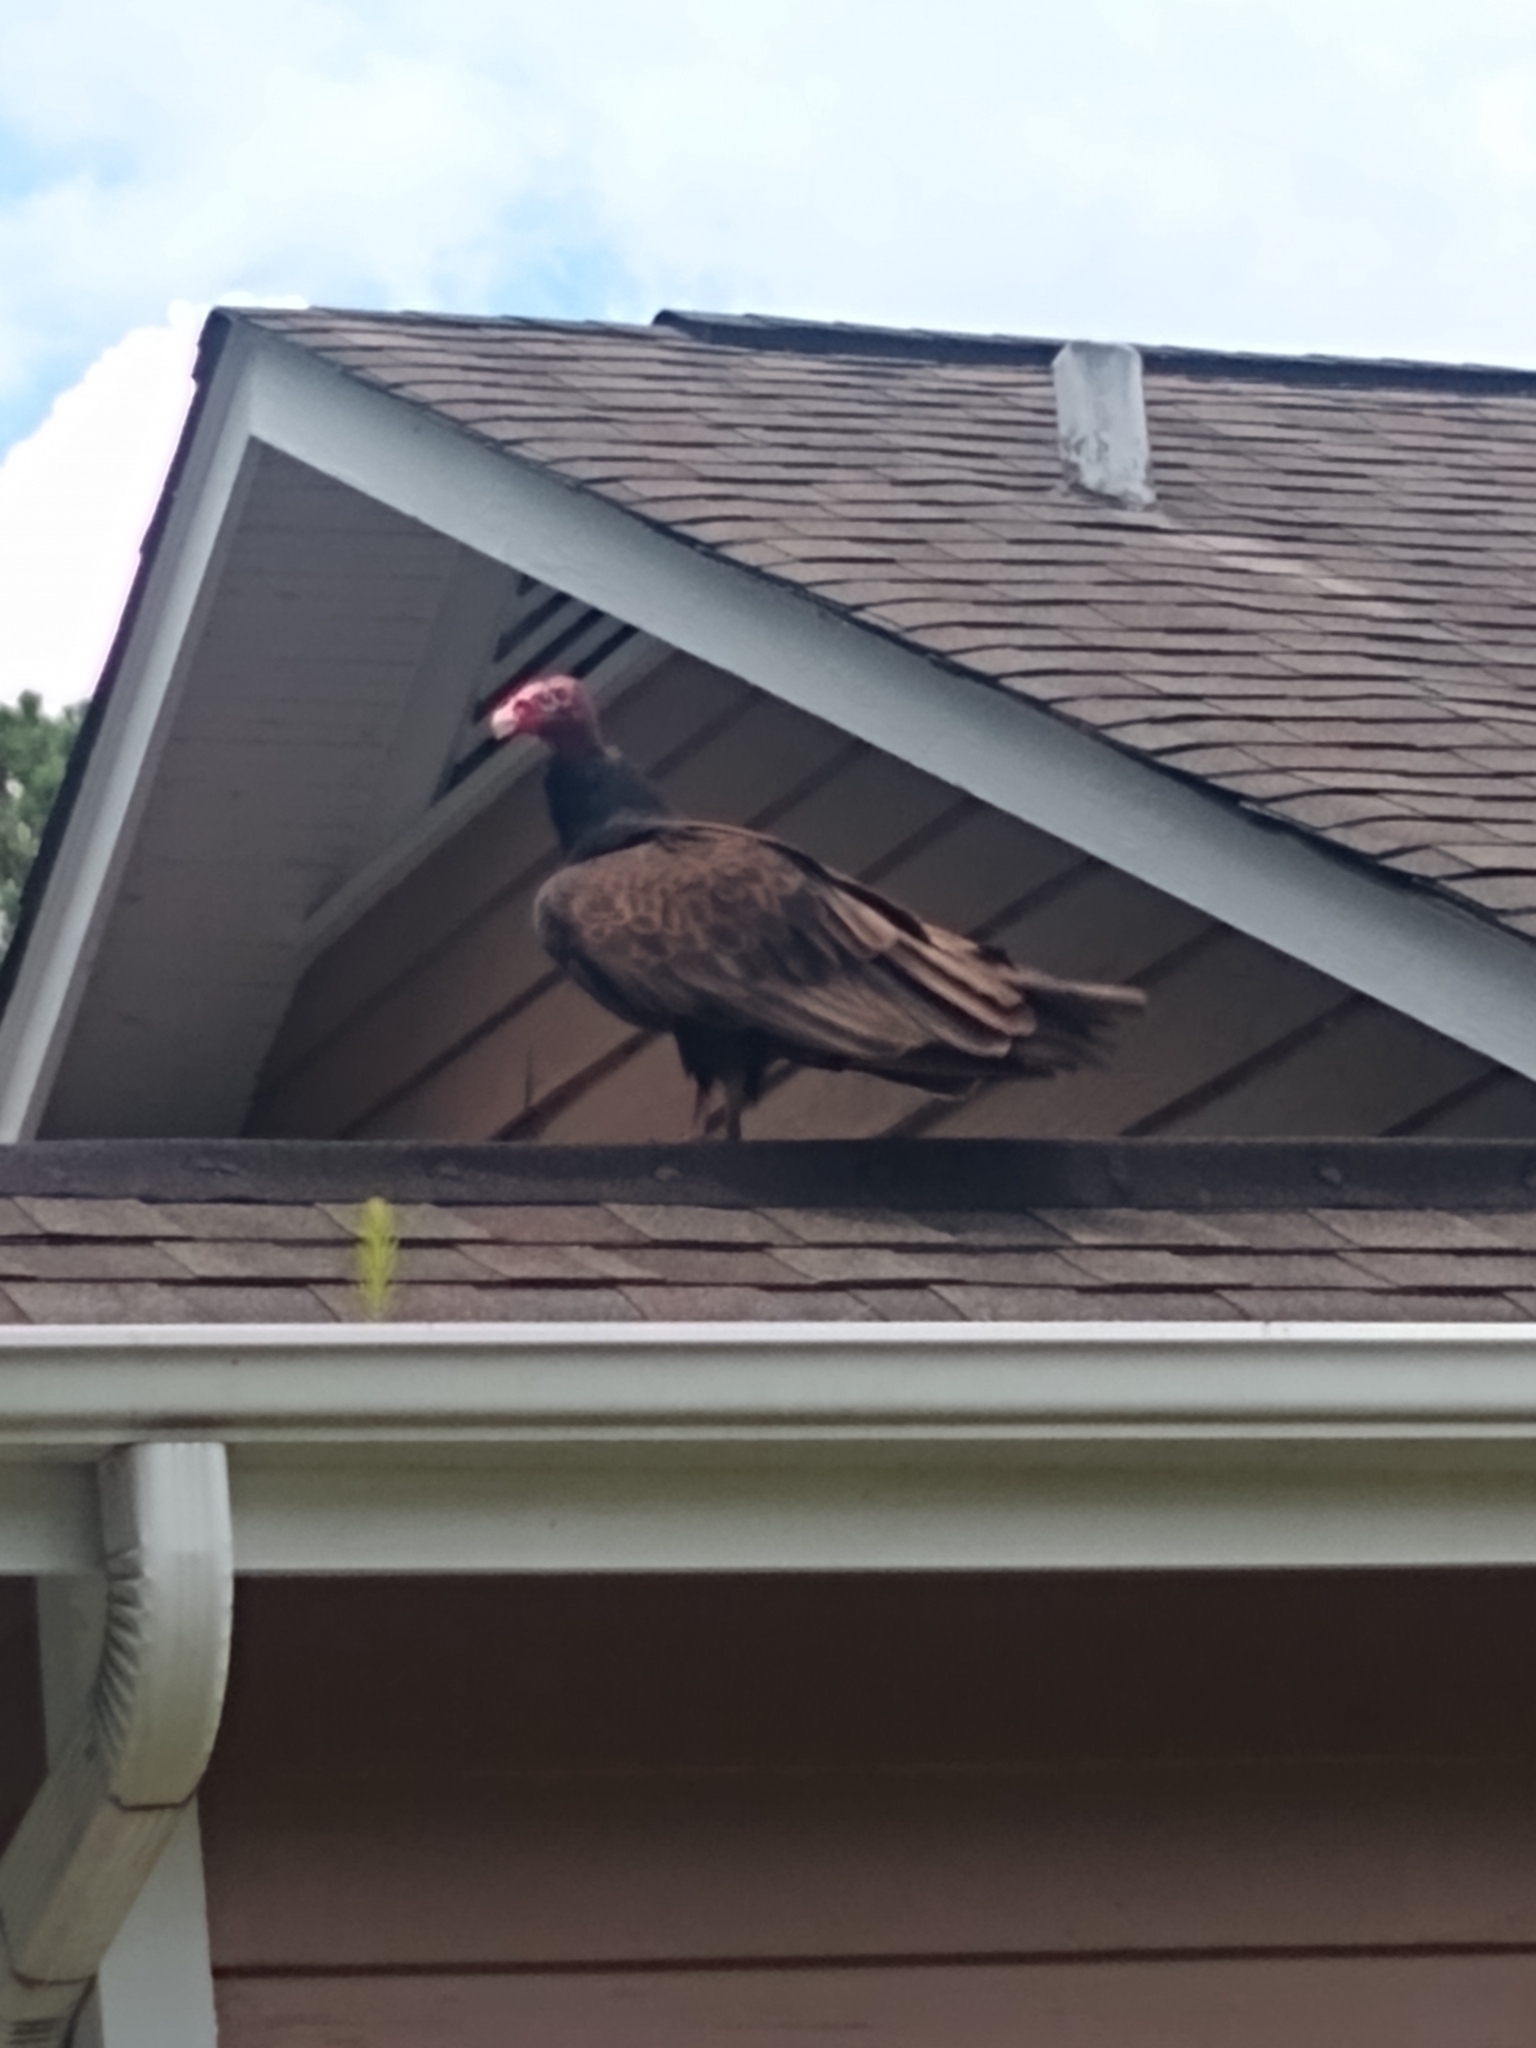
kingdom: Animalia
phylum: Chordata
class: Aves
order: Accipitriformes
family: Cathartidae
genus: Cathartes
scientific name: Cathartes aura
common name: Turkey vulture
